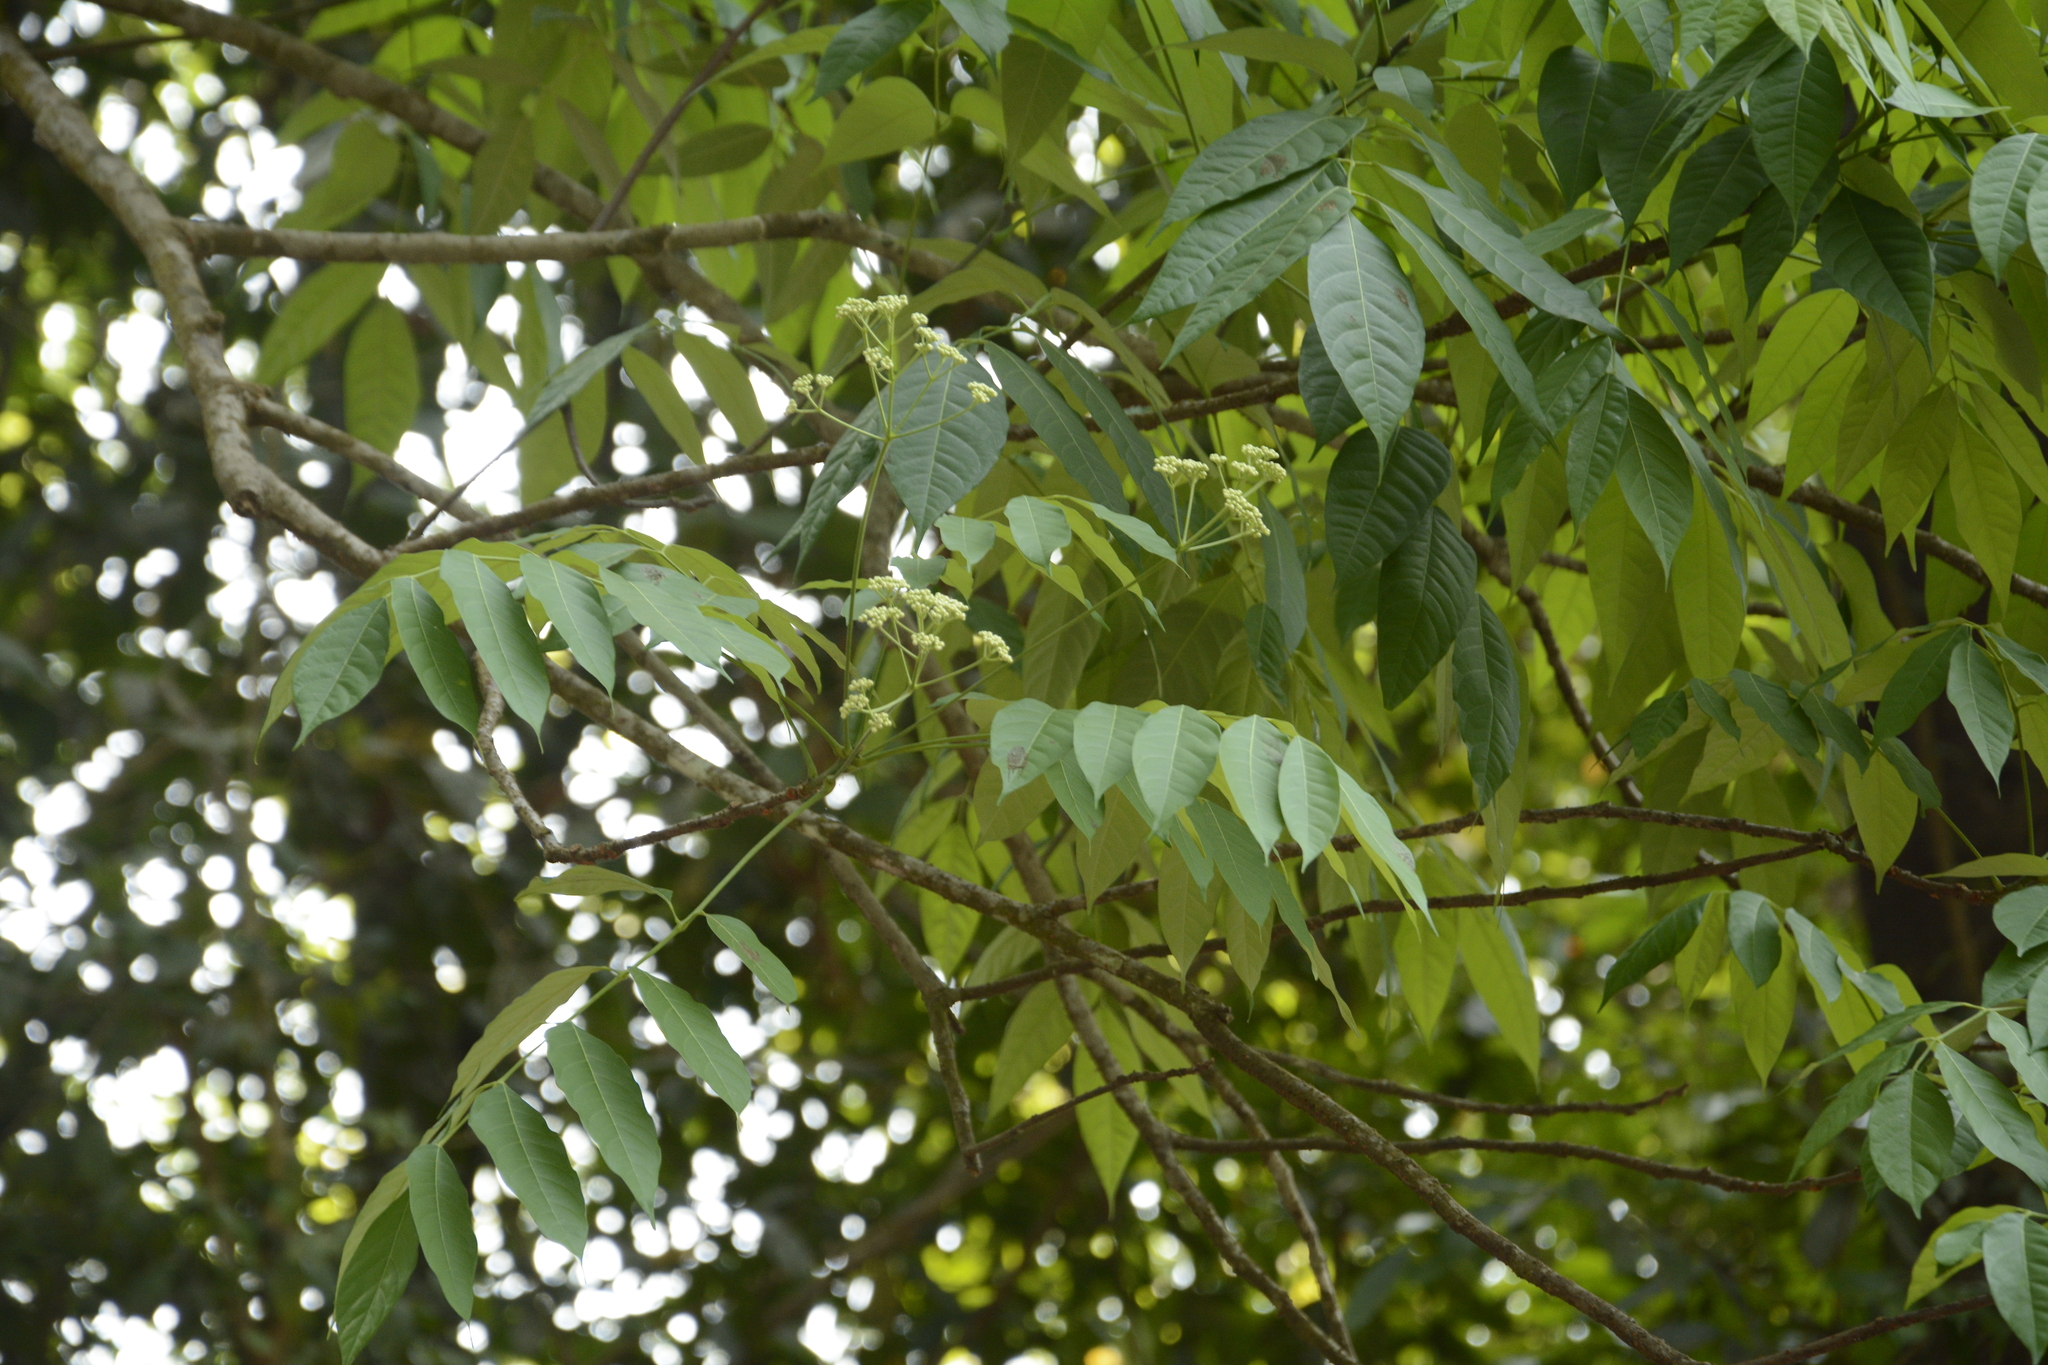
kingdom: Plantae
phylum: Tracheophyta
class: Magnoliopsida
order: Sapindales
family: Meliaceae
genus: Heynea
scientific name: Heynea trijuga
